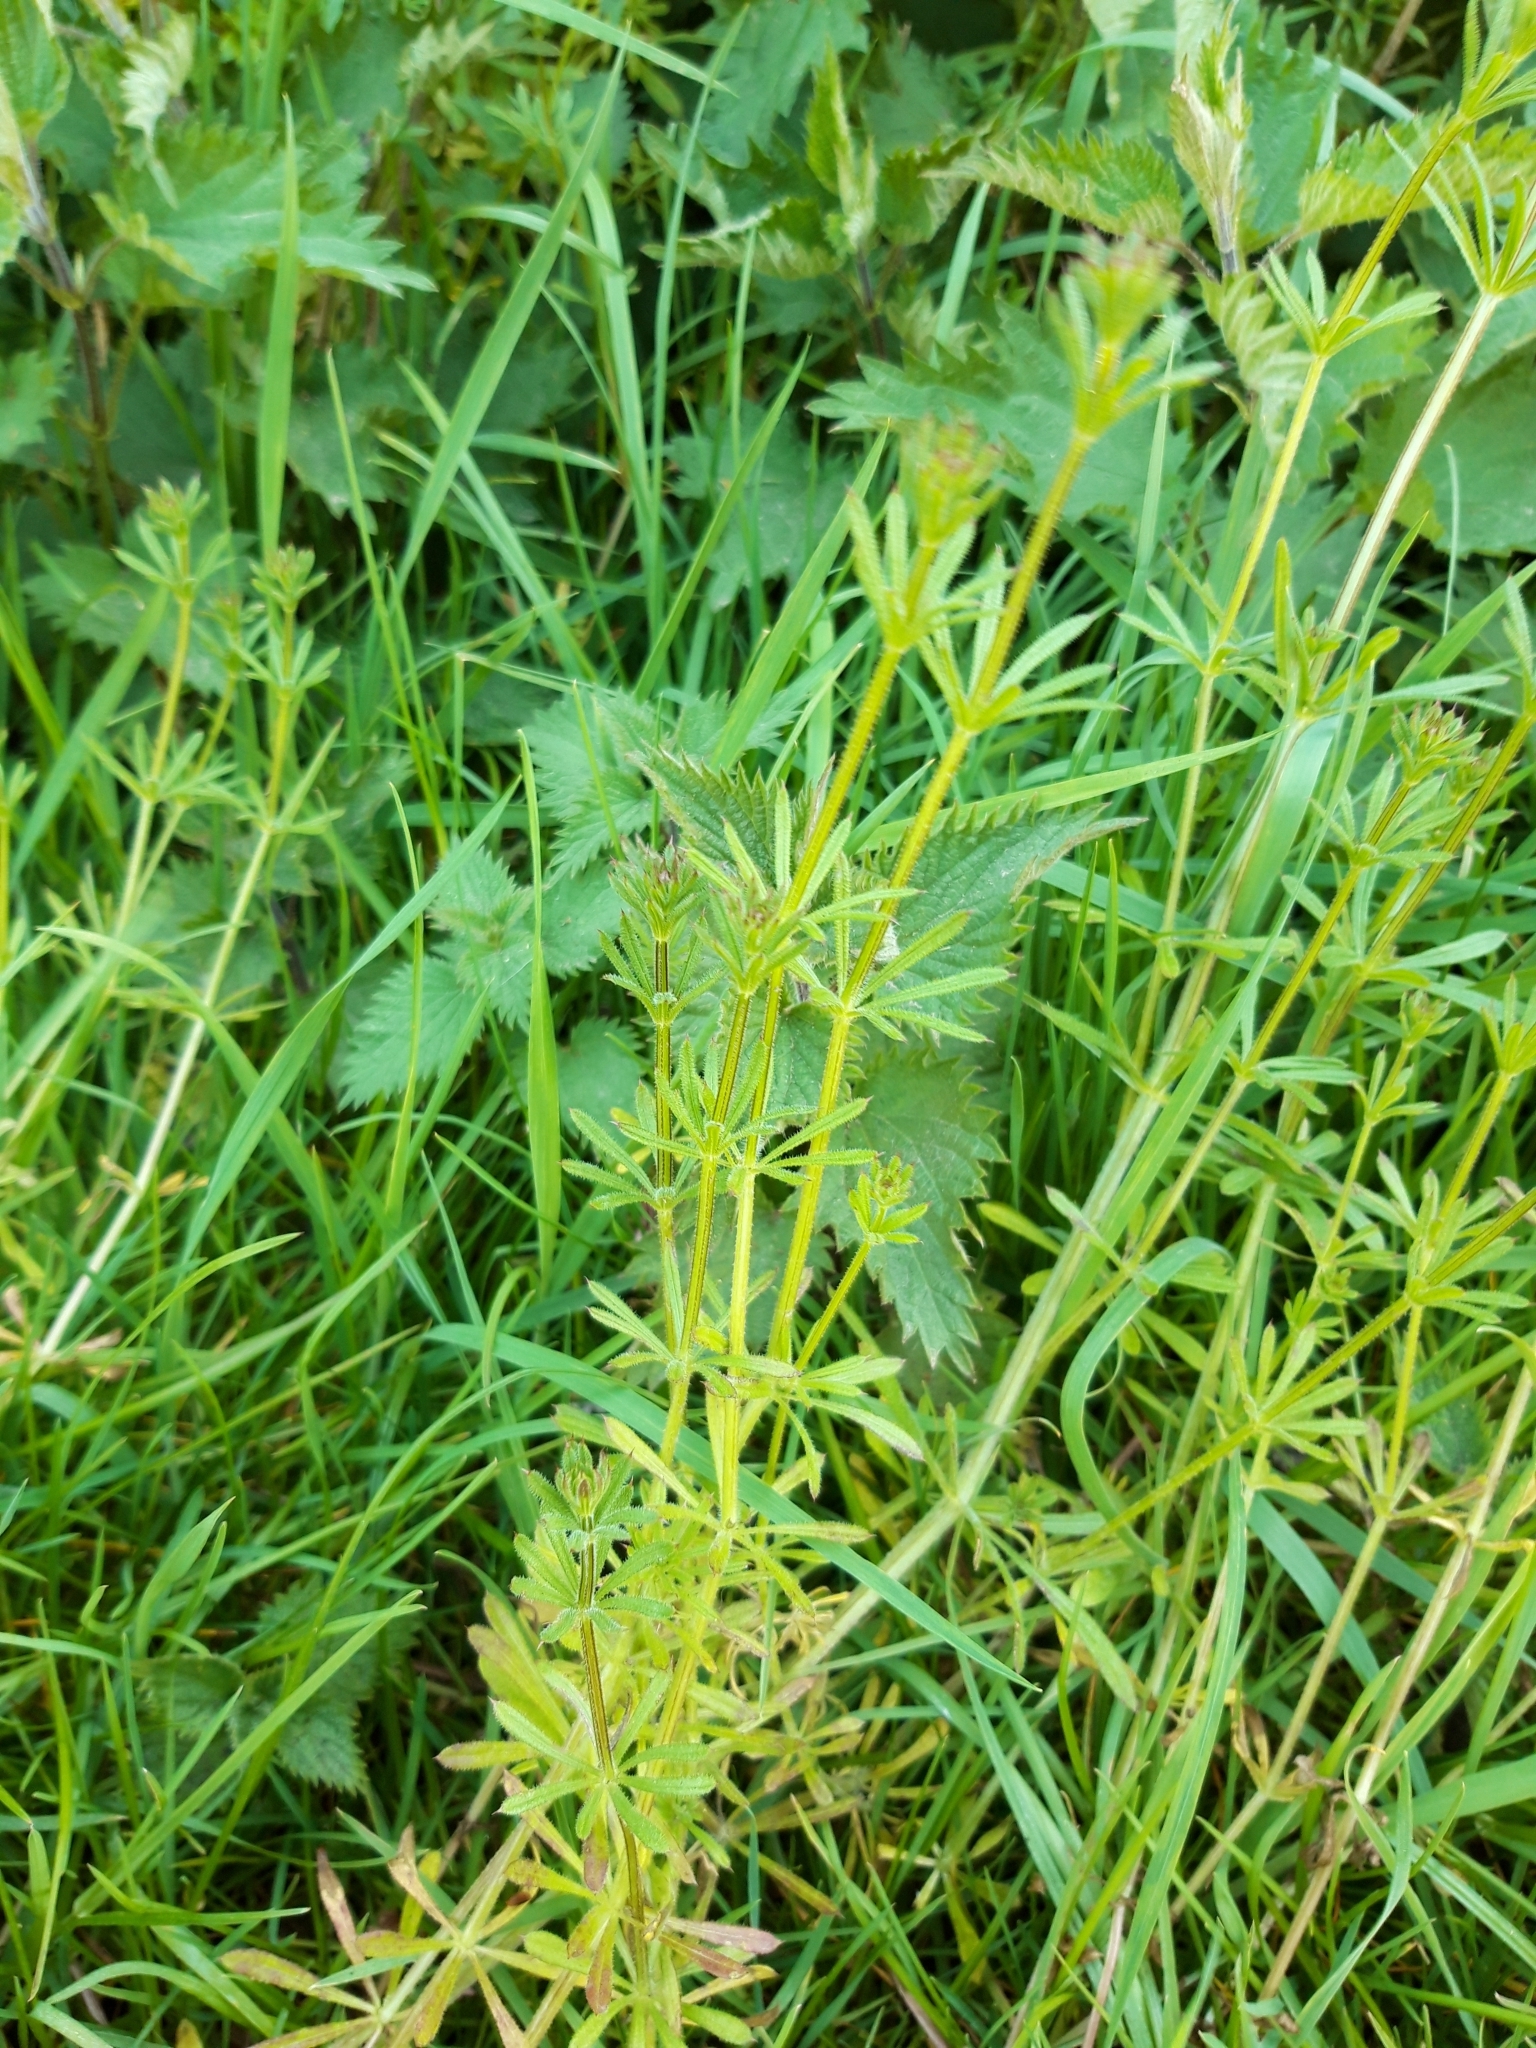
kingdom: Plantae
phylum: Tracheophyta
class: Magnoliopsida
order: Gentianales
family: Rubiaceae
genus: Galium
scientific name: Galium aparine
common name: Cleavers
